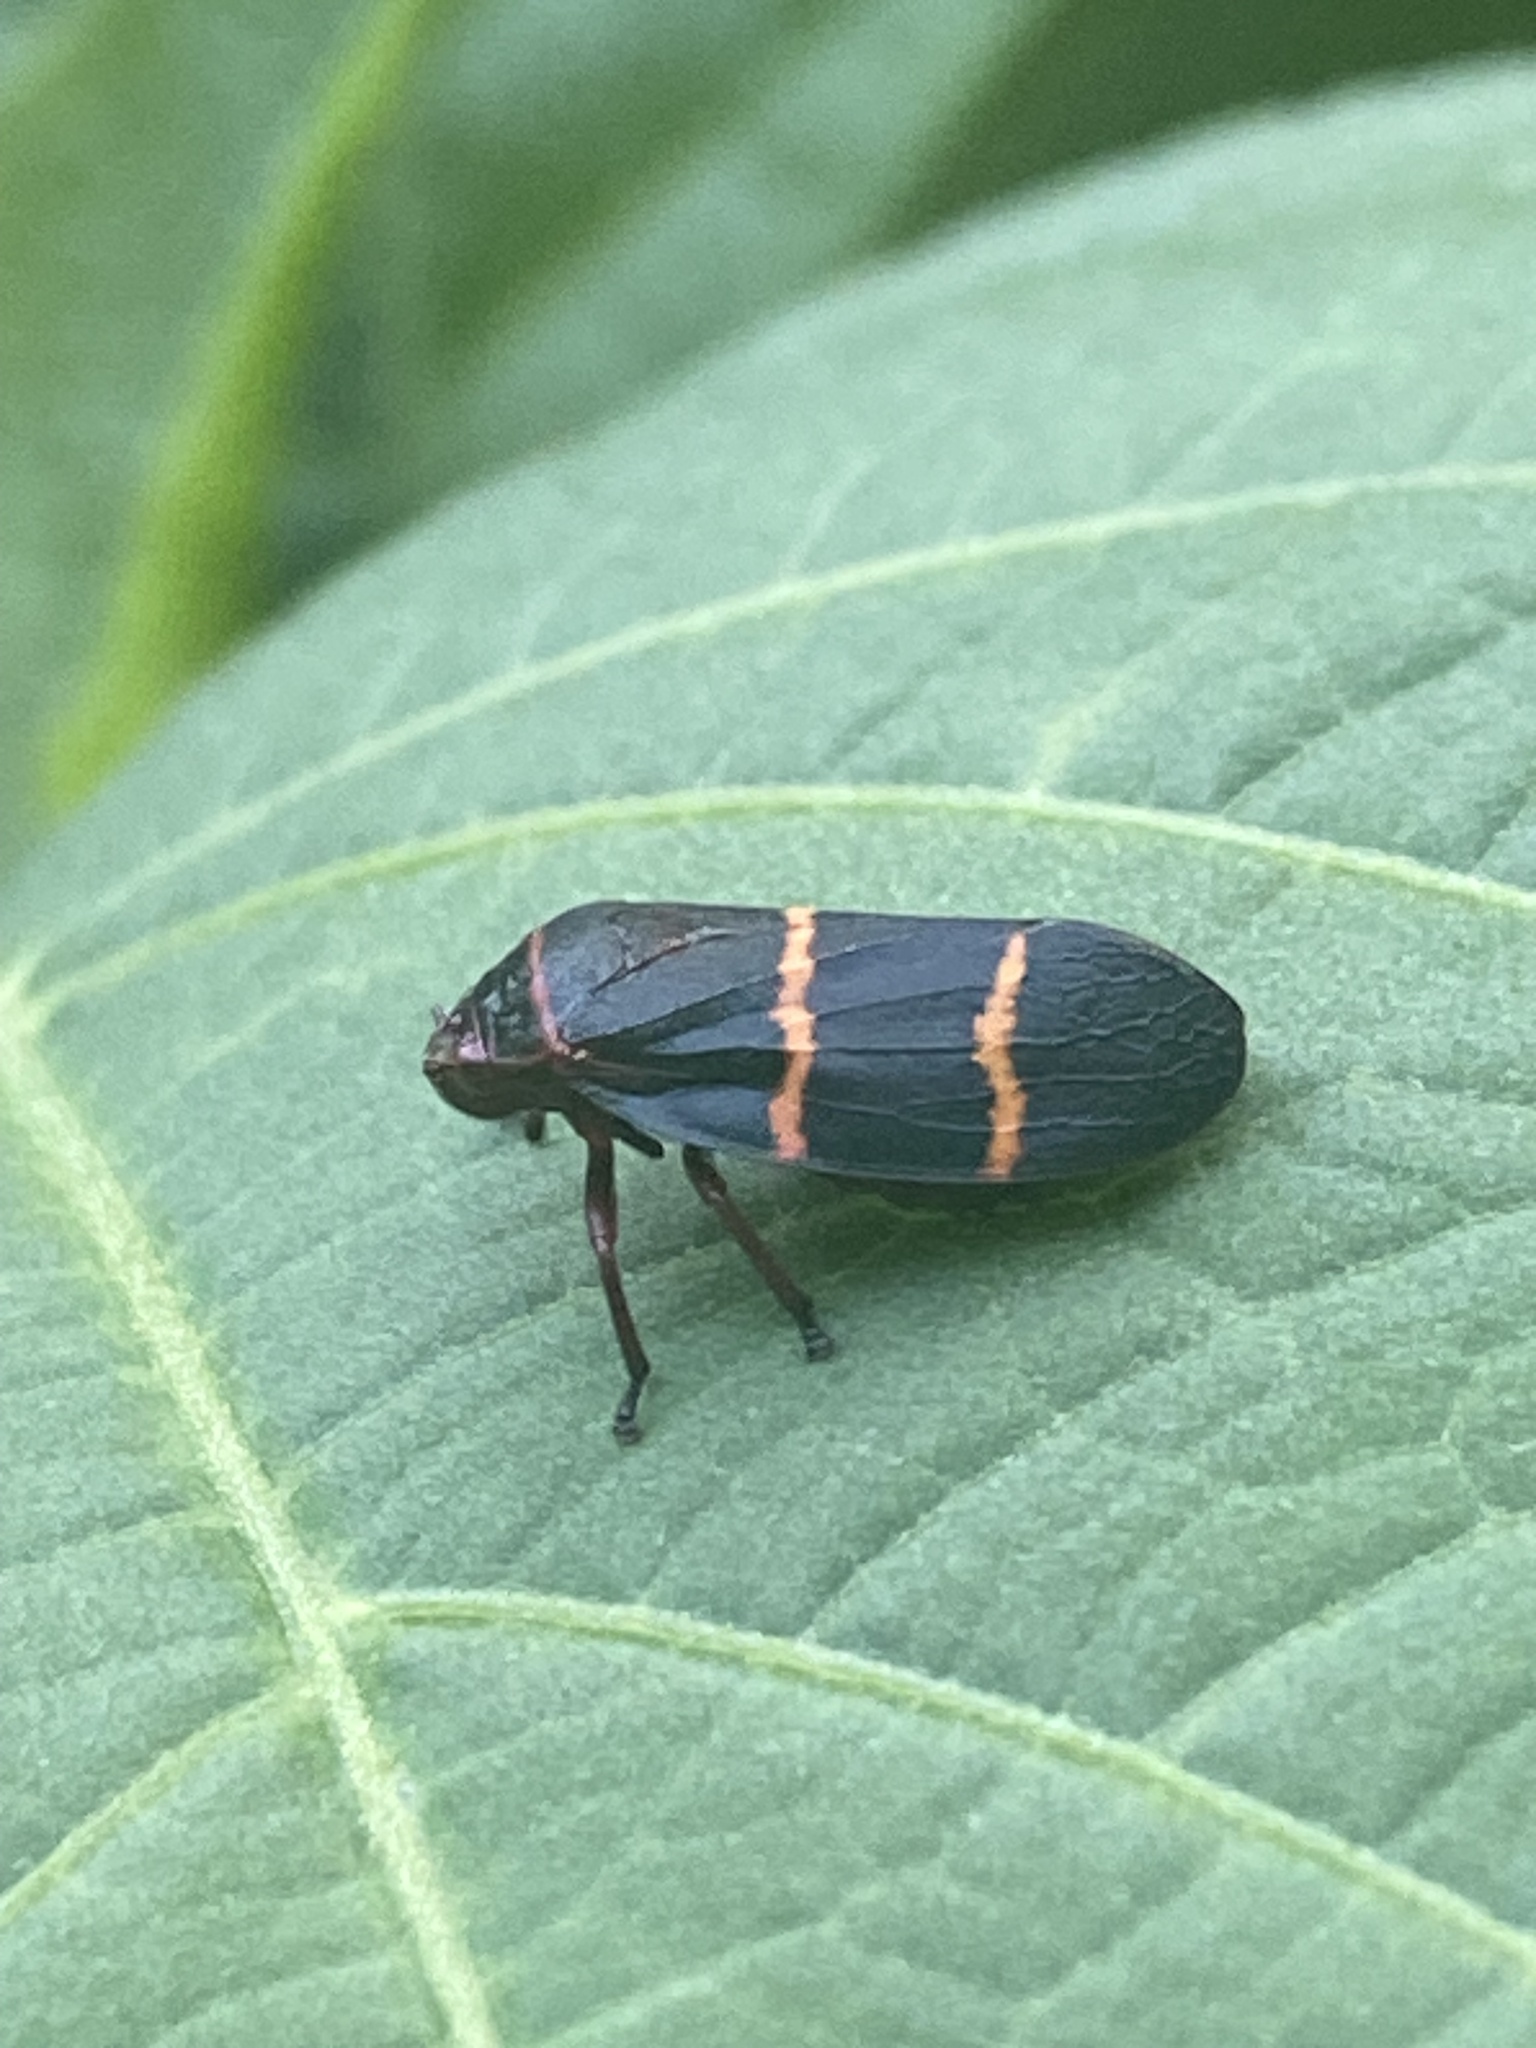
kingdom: Animalia
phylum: Arthropoda
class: Insecta
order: Hemiptera
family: Cercopidae
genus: Prosapia
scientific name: Prosapia bicincta
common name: Twolined spittlebug
